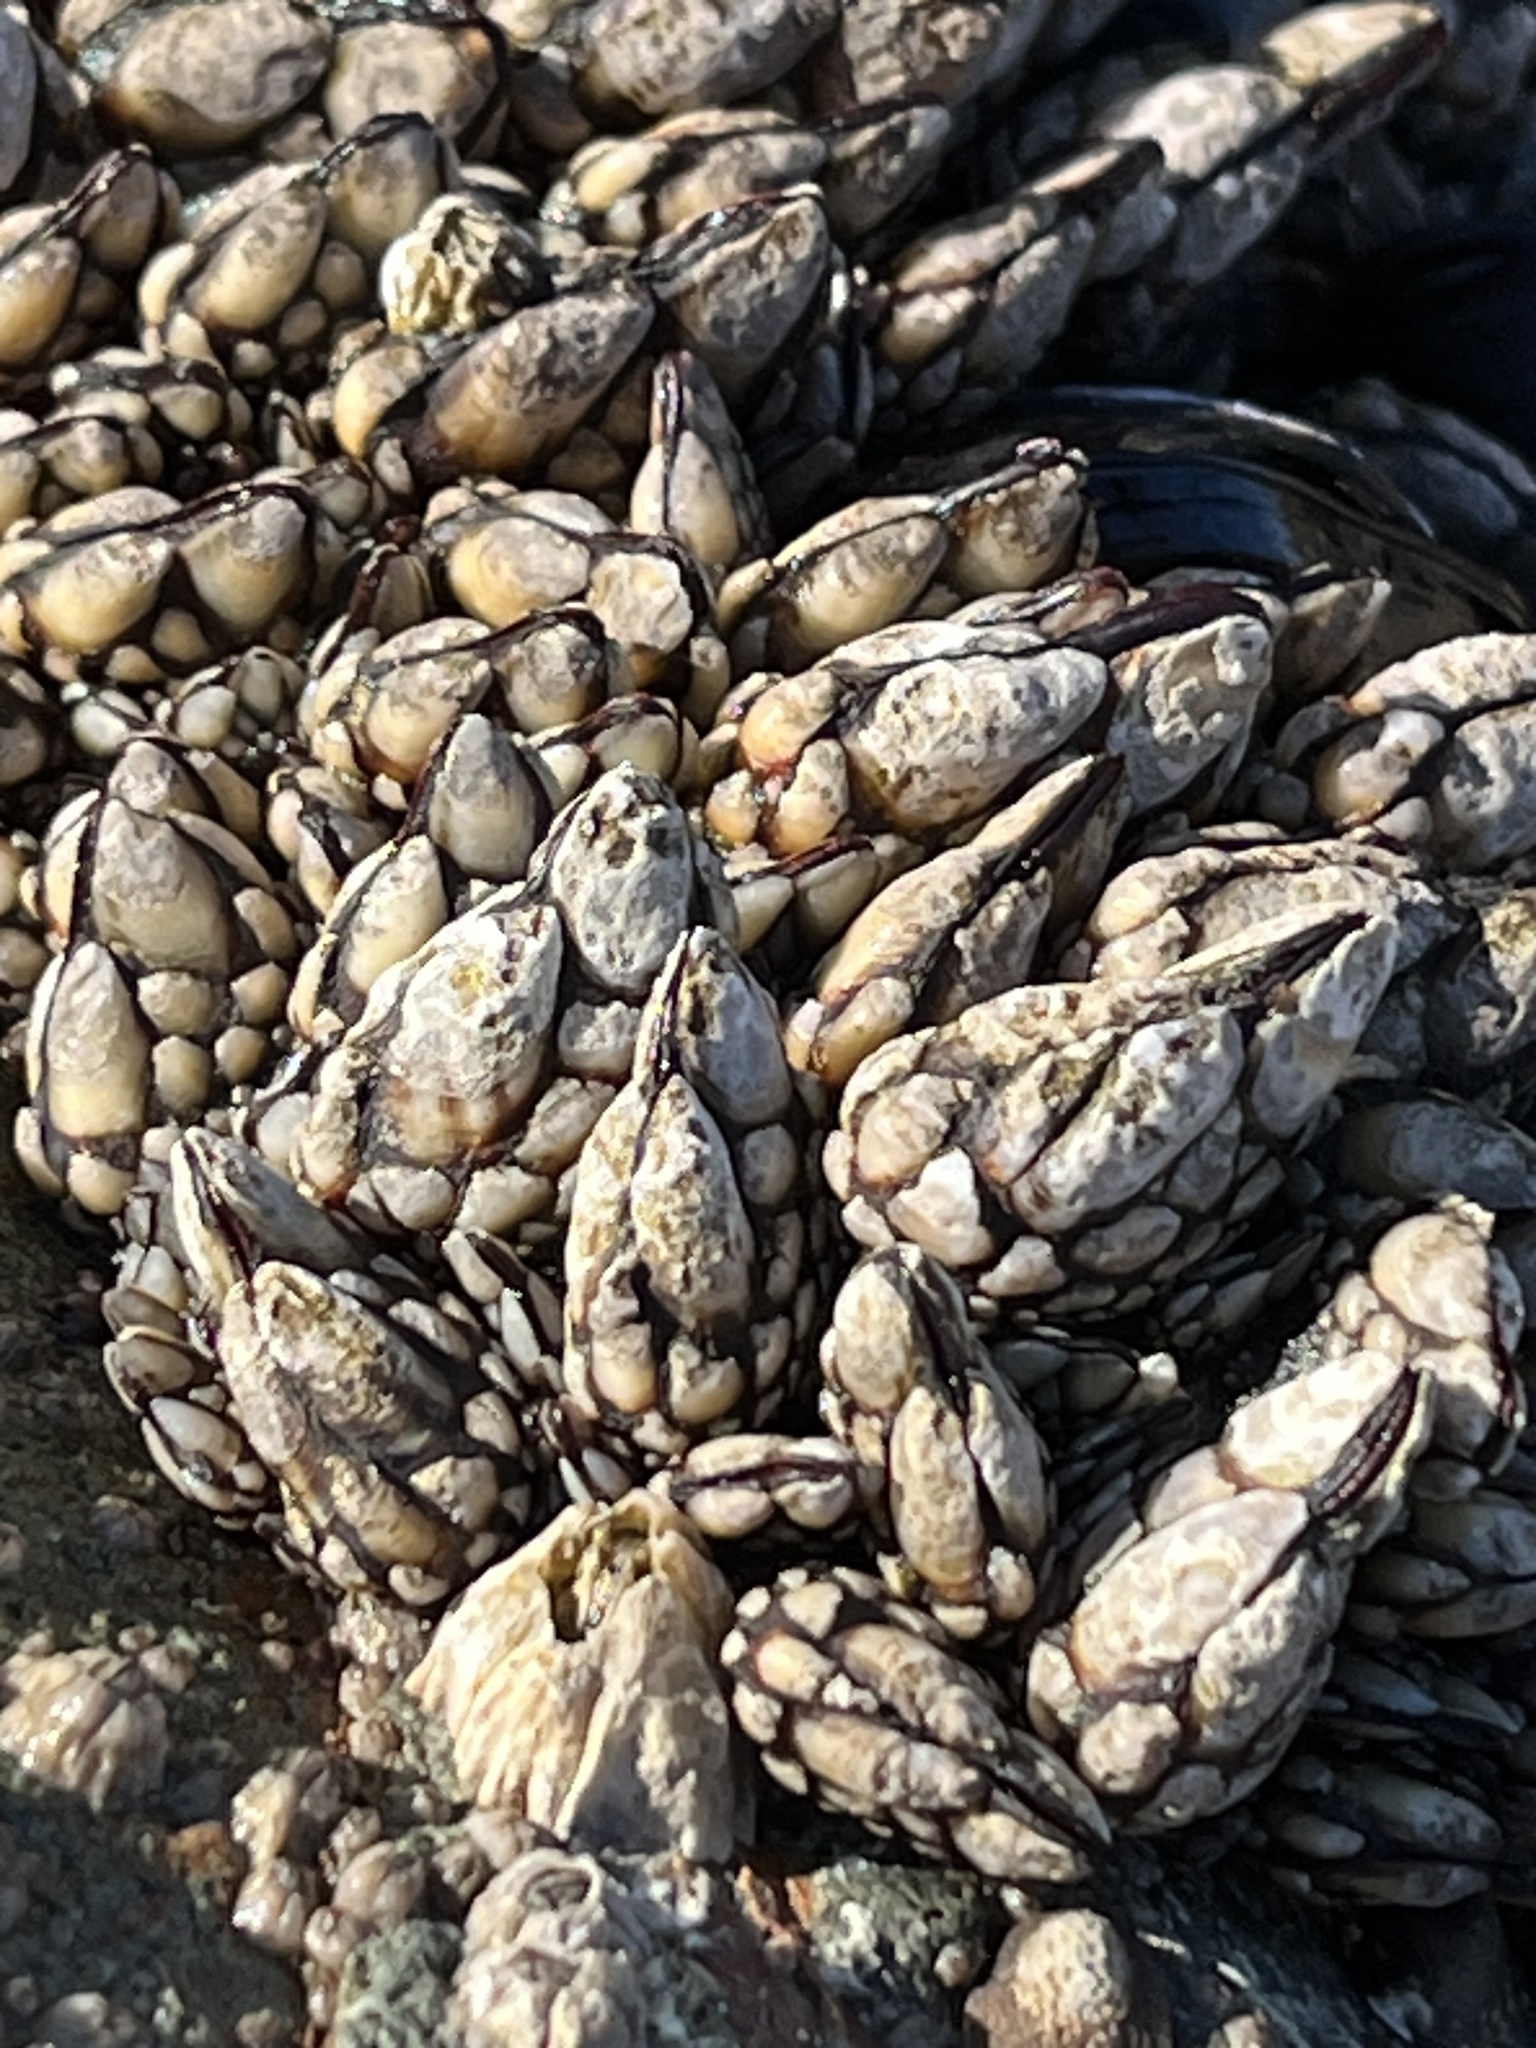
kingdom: Animalia
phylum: Arthropoda
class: Maxillopoda
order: Pedunculata
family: Pollicipedidae
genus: Pollicipes
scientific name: Pollicipes polymerus
